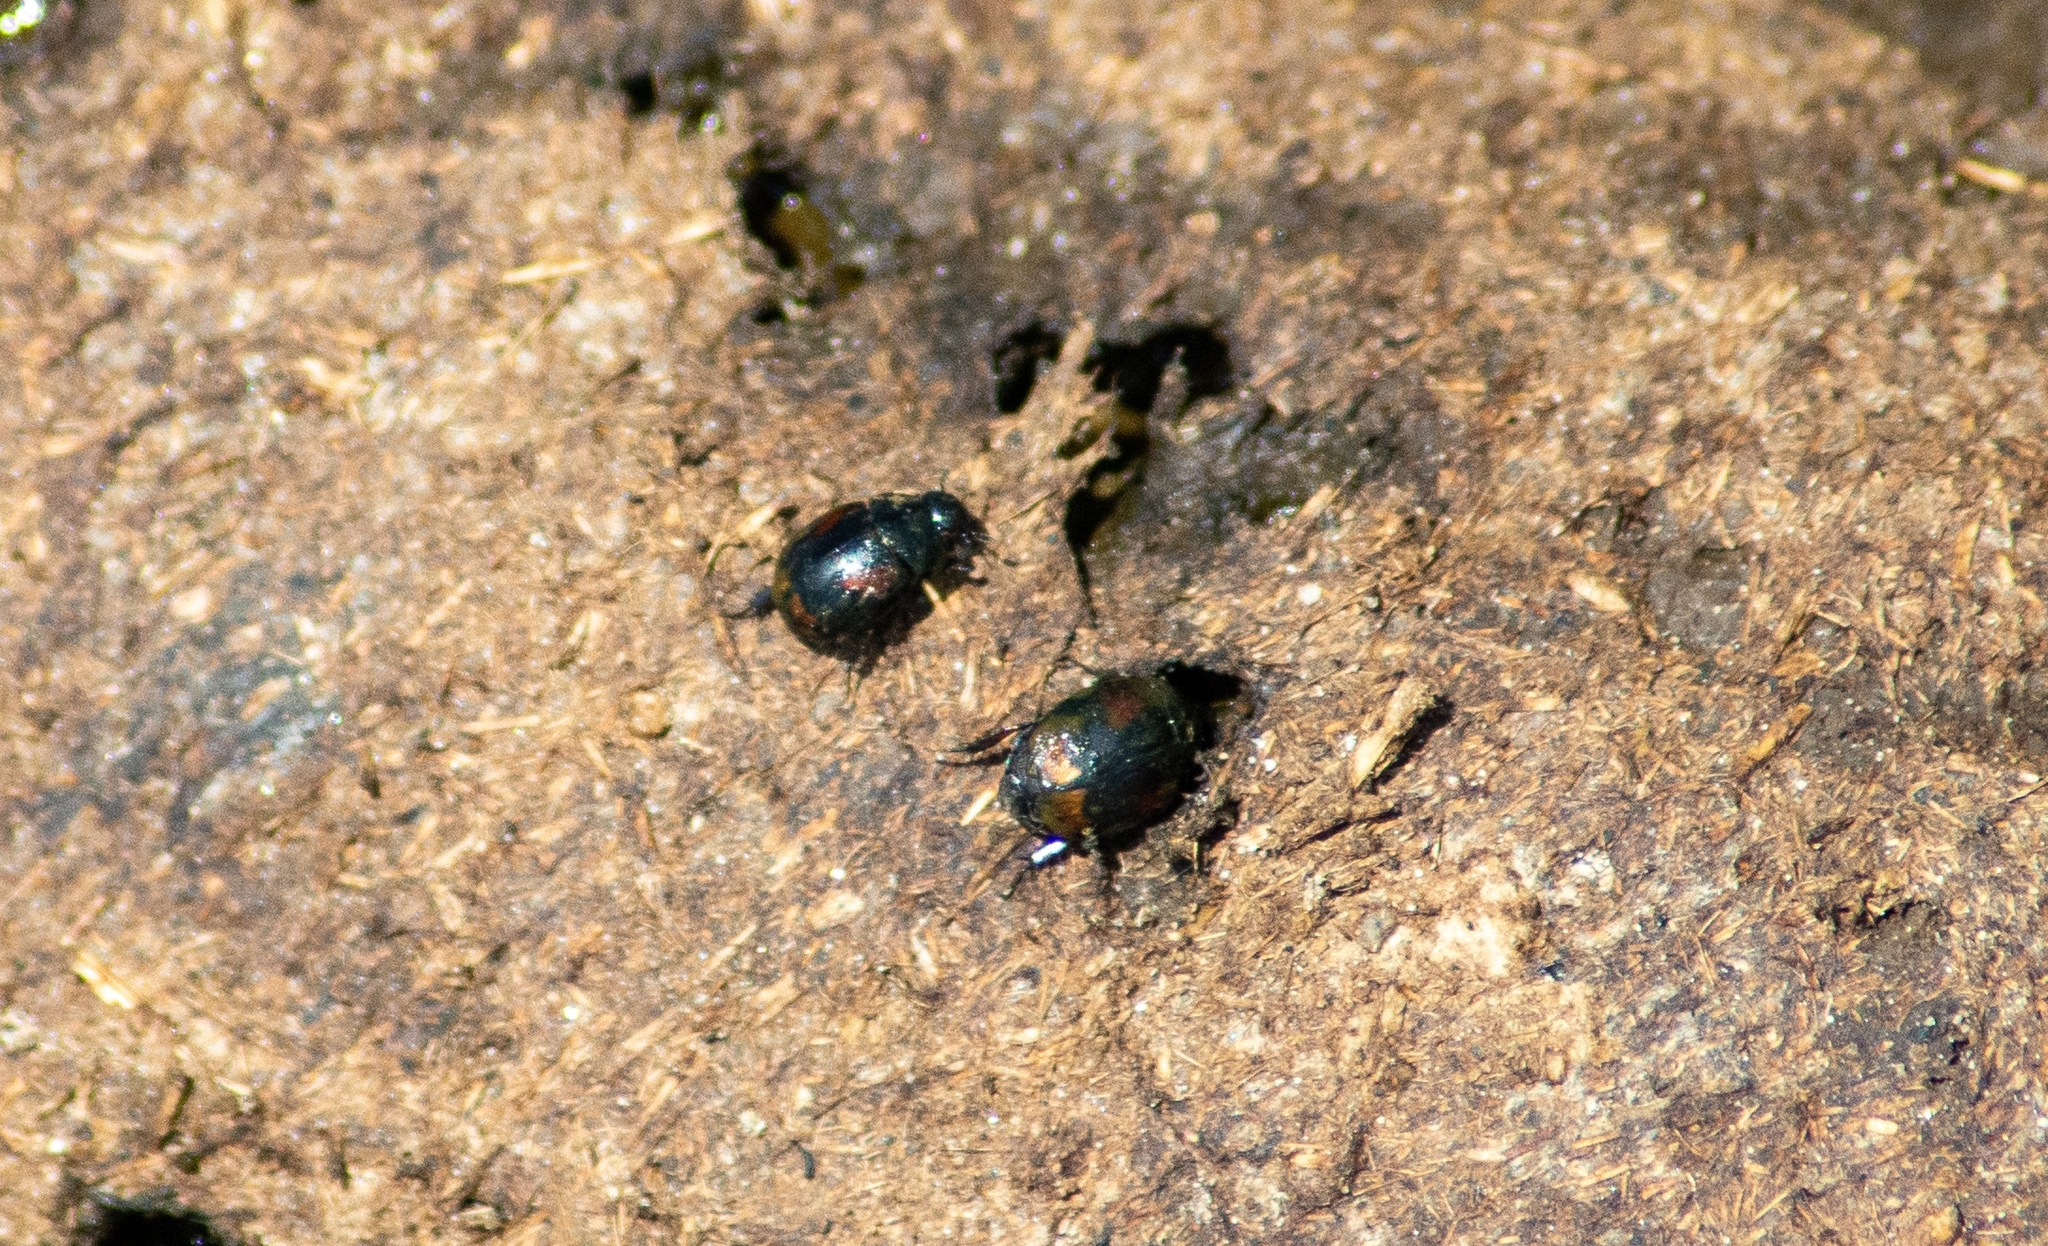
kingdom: Animalia
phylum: Arthropoda
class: Insecta
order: Coleoptera
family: Hydrophilidae
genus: Sphaeridium
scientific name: Sphaeridium scarabaeoides
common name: Water scavenger beetle
